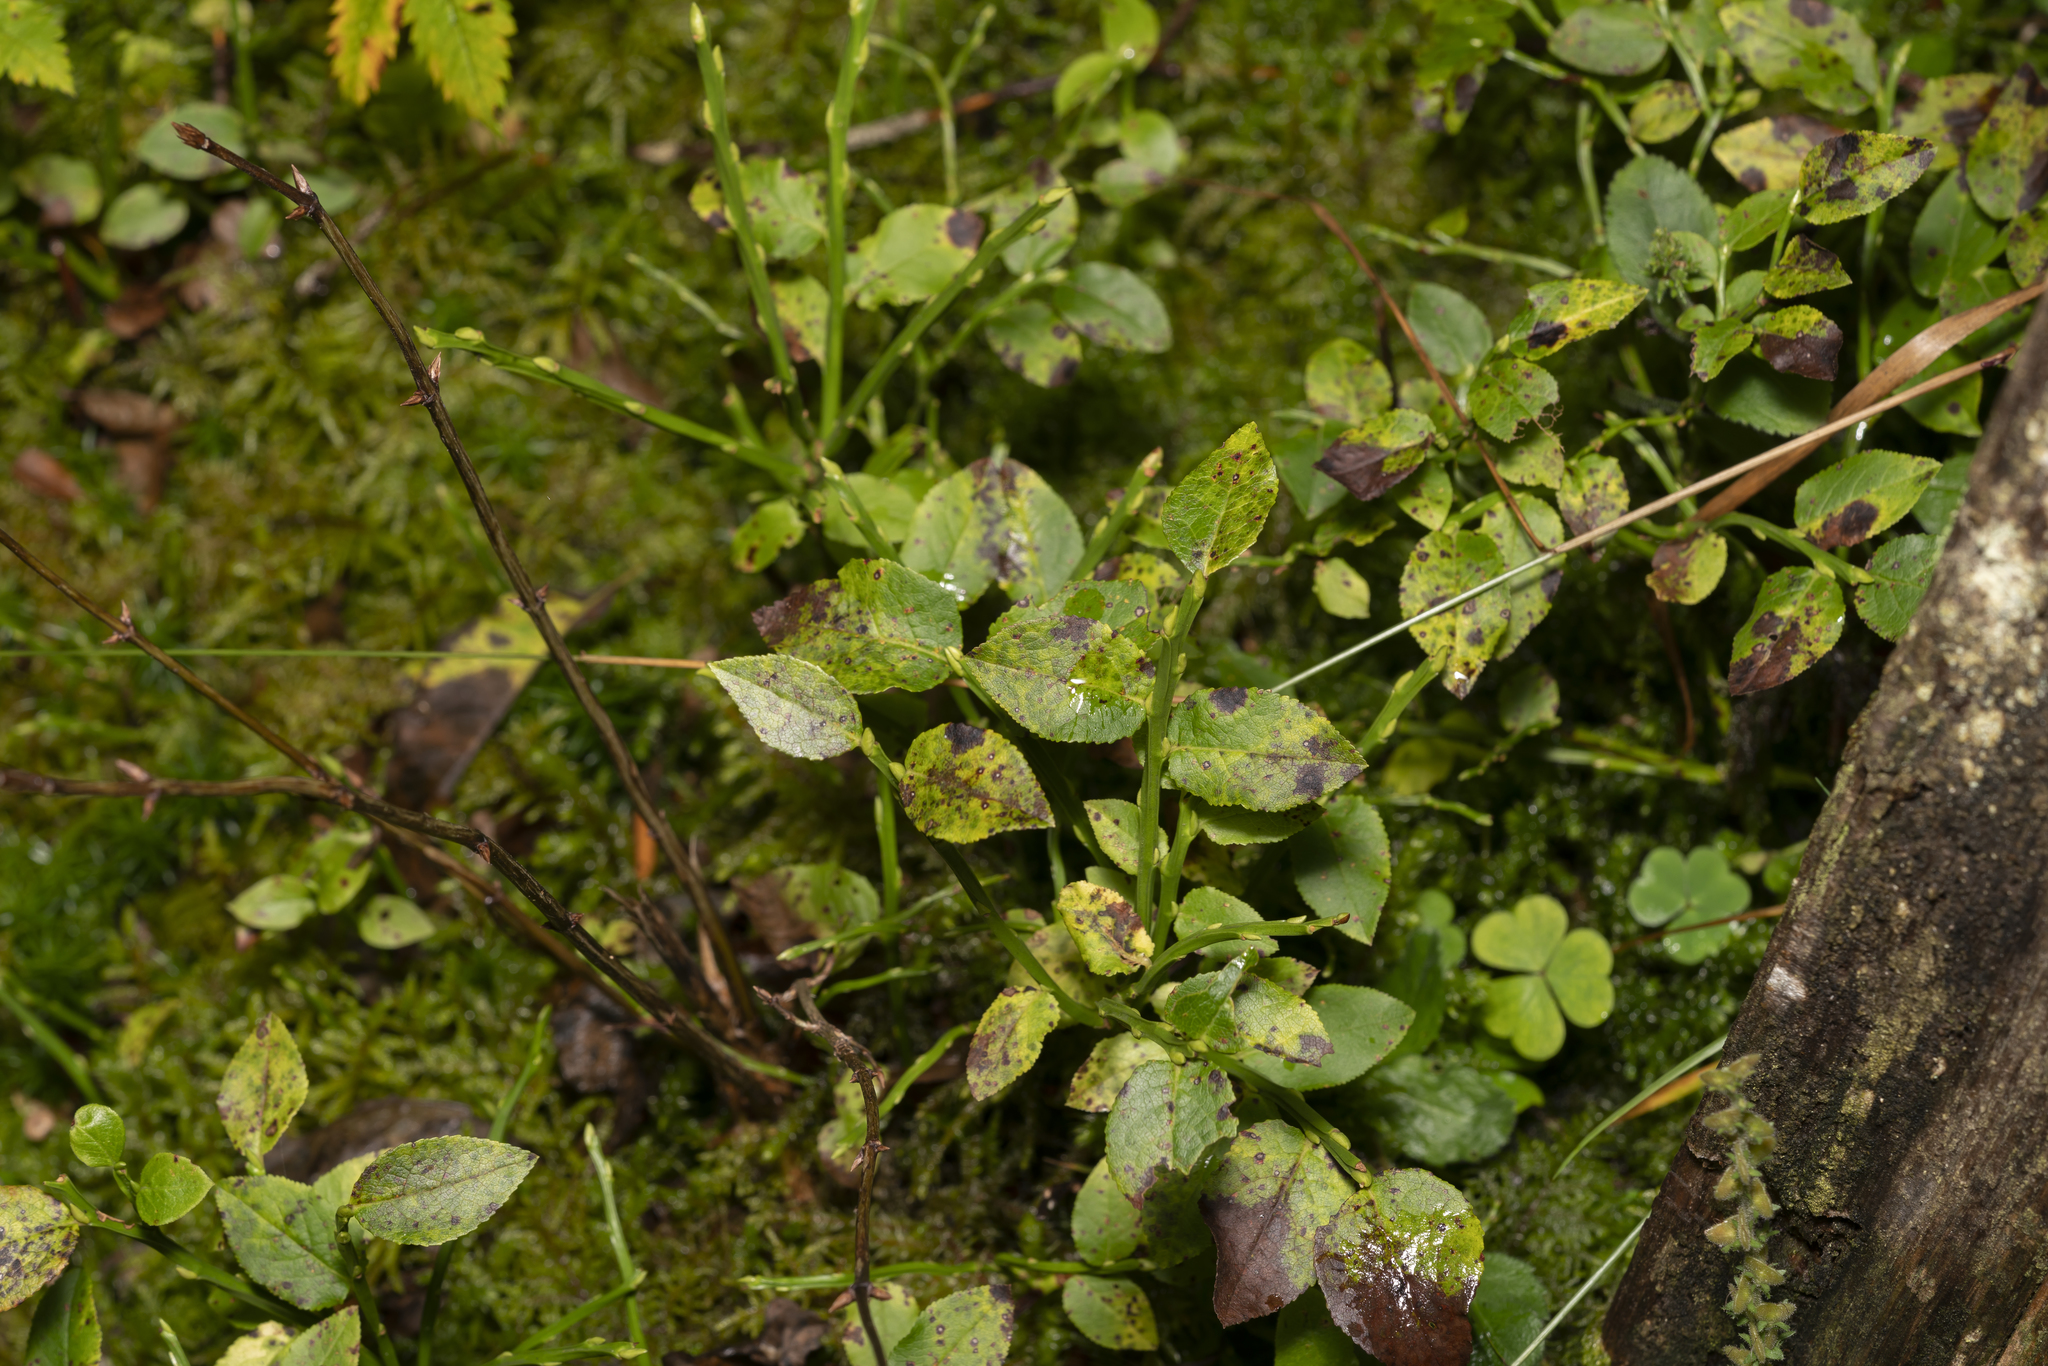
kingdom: Plantae
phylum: Tracheophyta
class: Magnoliopsida
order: Ericales
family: Ericaceae
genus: Vaccinium
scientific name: Vaccinium myrtillus
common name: Bilberry
